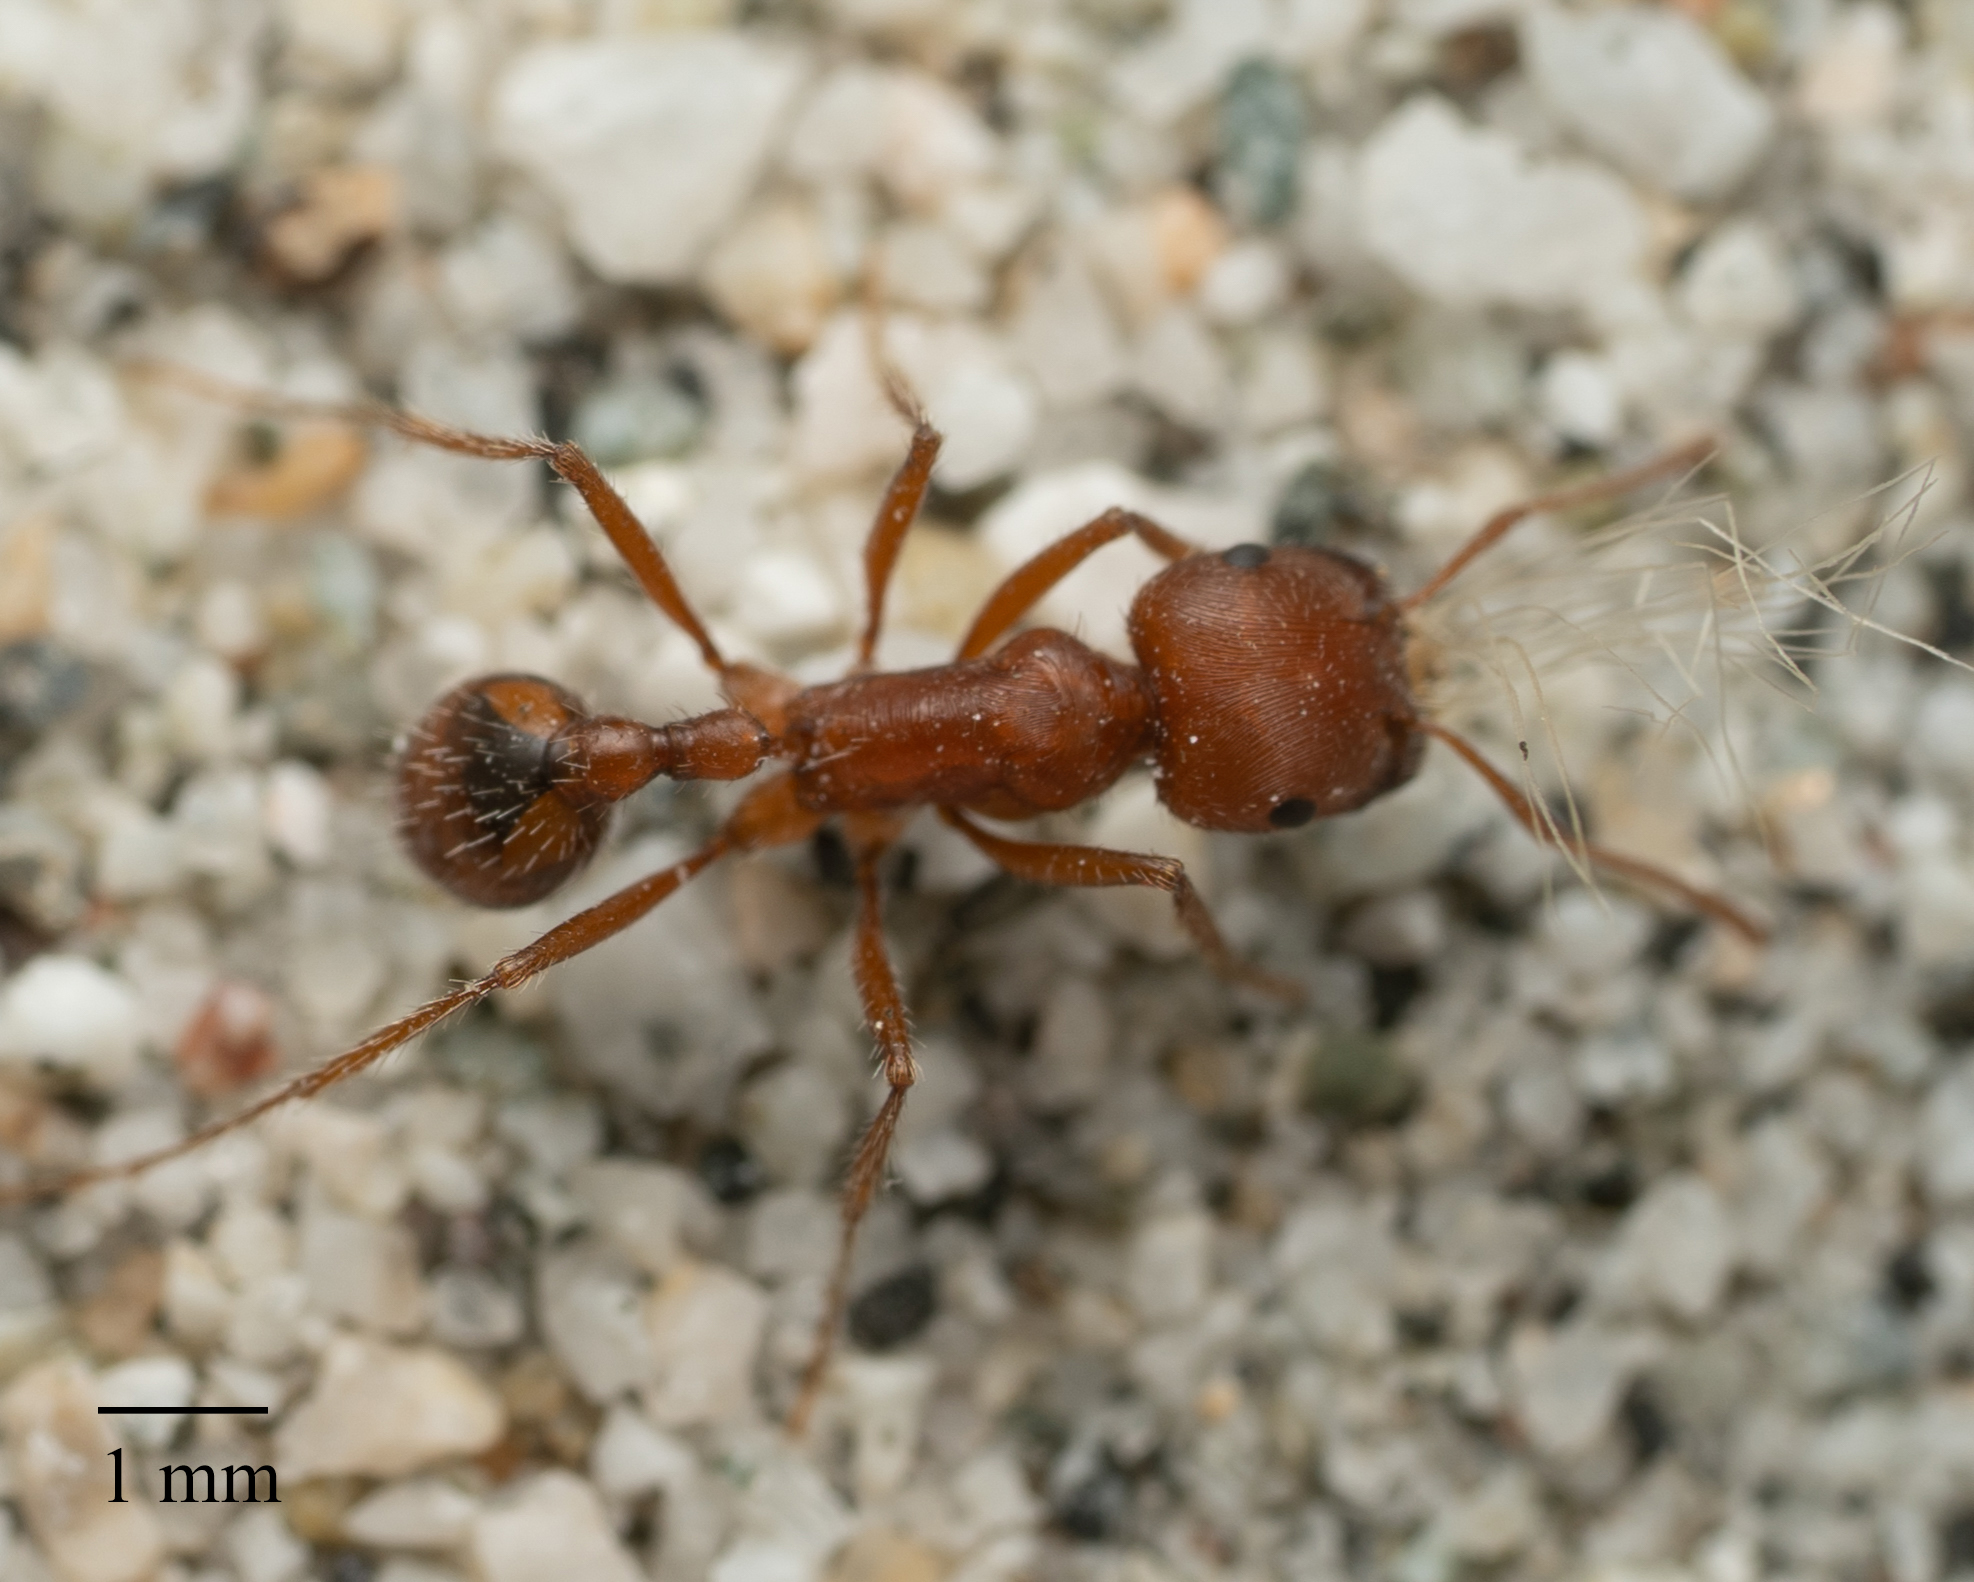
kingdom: Animalia
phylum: Arthropoda
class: Insecta
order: Hymenoptera
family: Formicidae
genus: Pogonomyrmex
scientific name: Pogonomyrmex californicus
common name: California harvester ant
